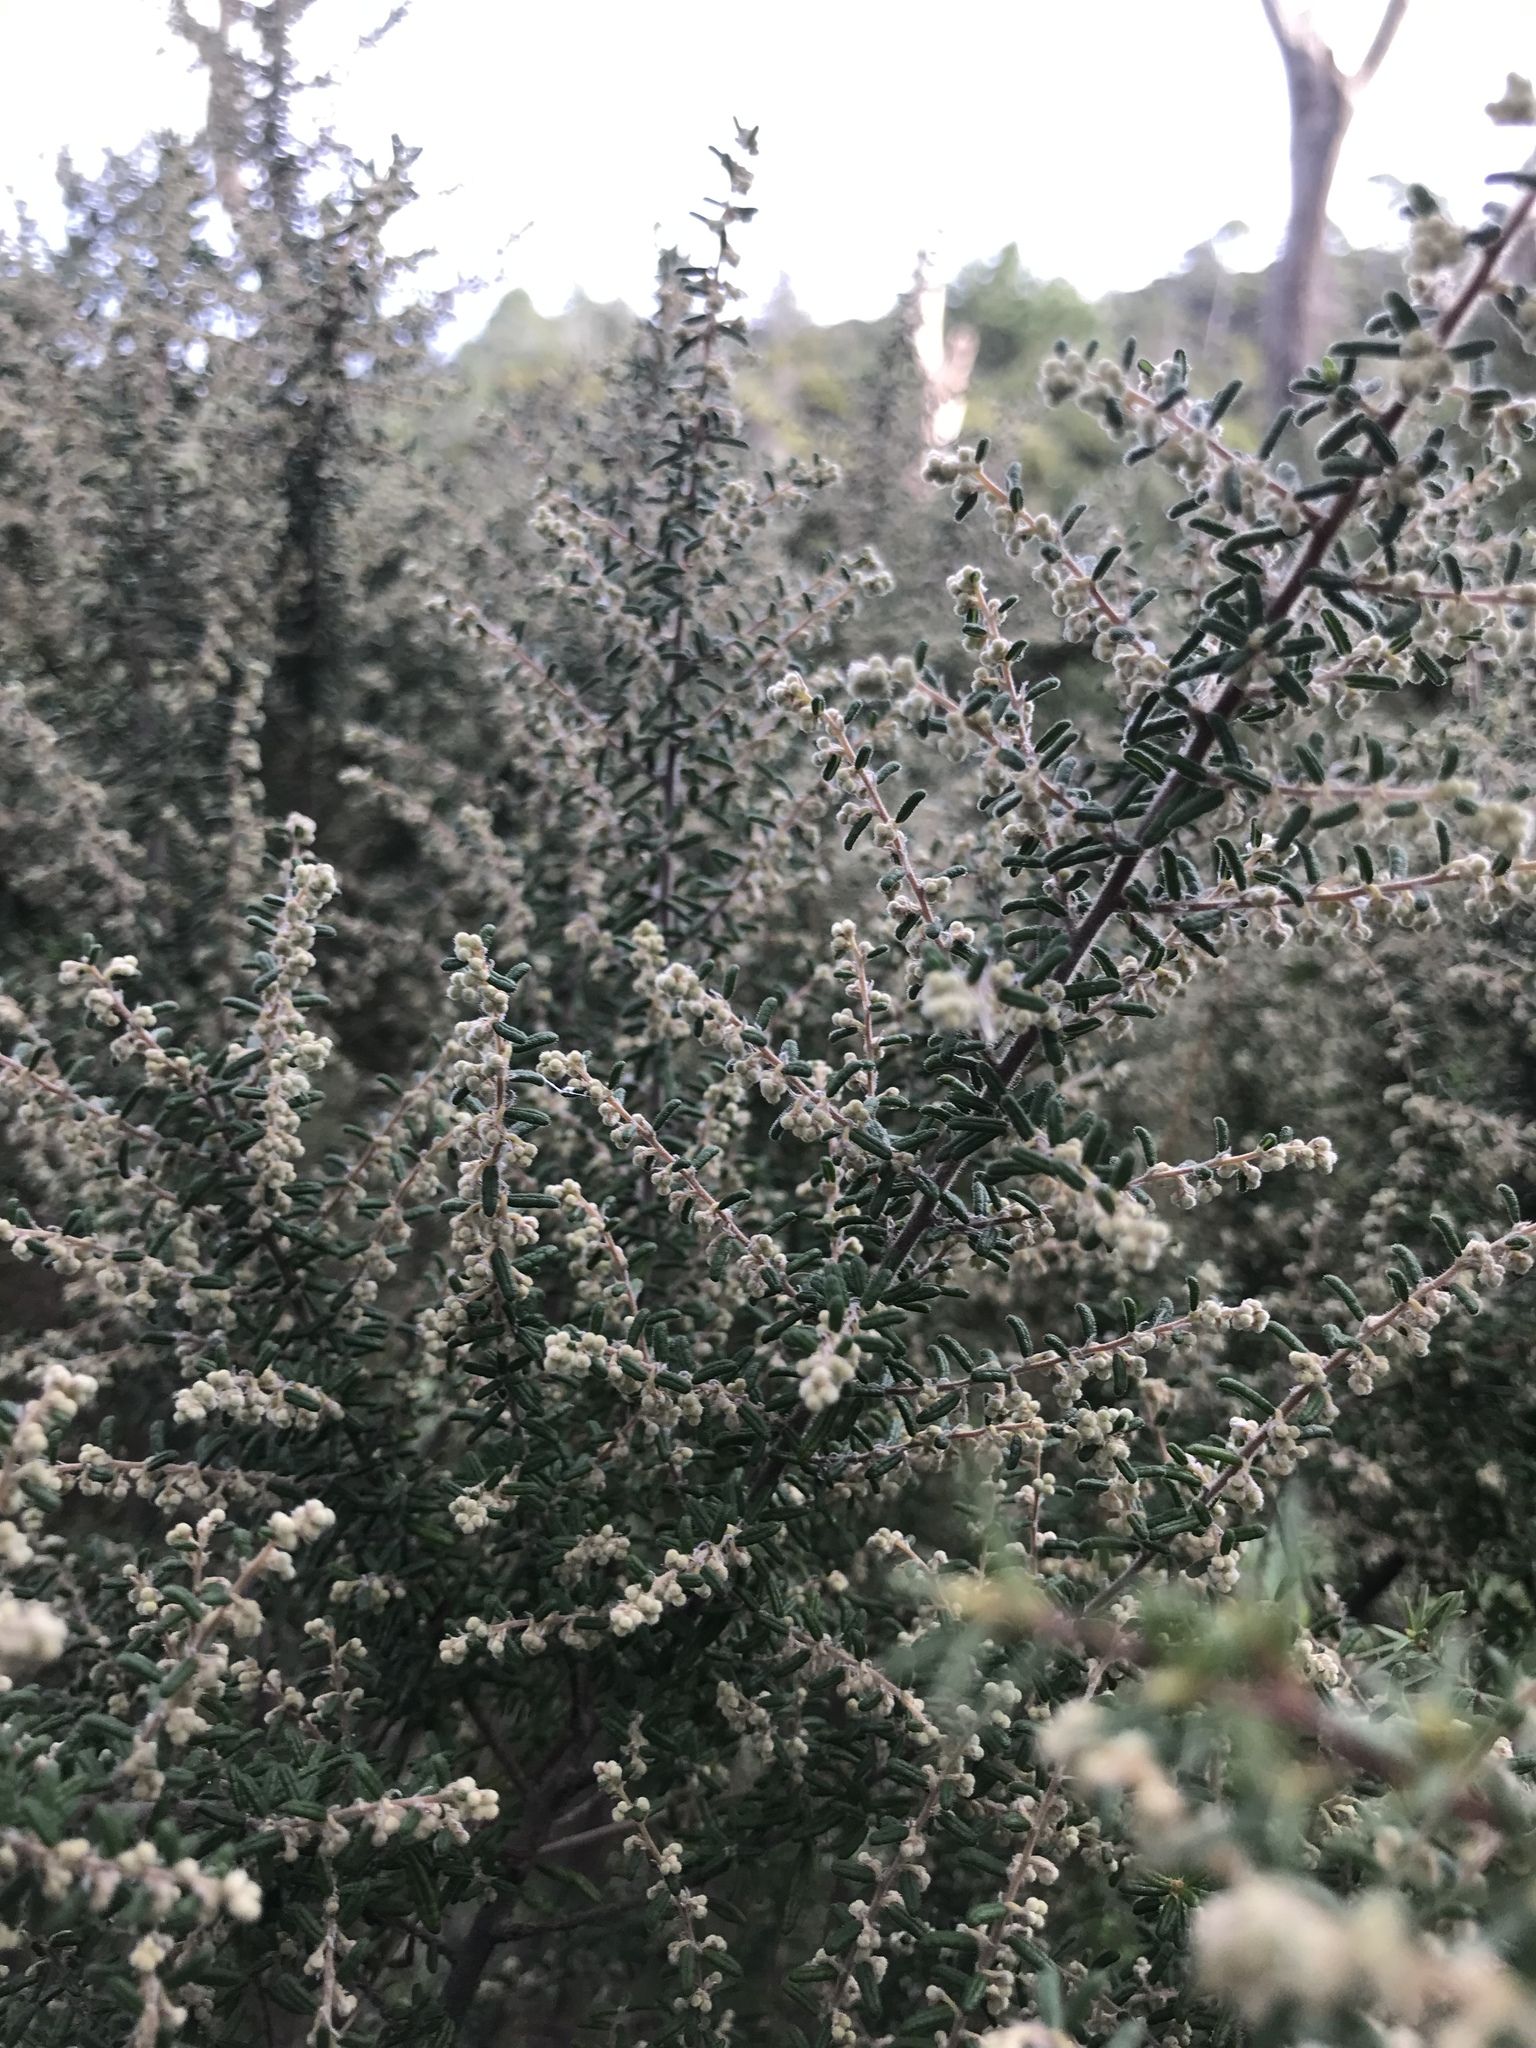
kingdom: Plantae
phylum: Tracheophyta
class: Magnoliopsida
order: Rosales
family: Rhamnaceae
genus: Pomaderris
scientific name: Pomaderris amoena
